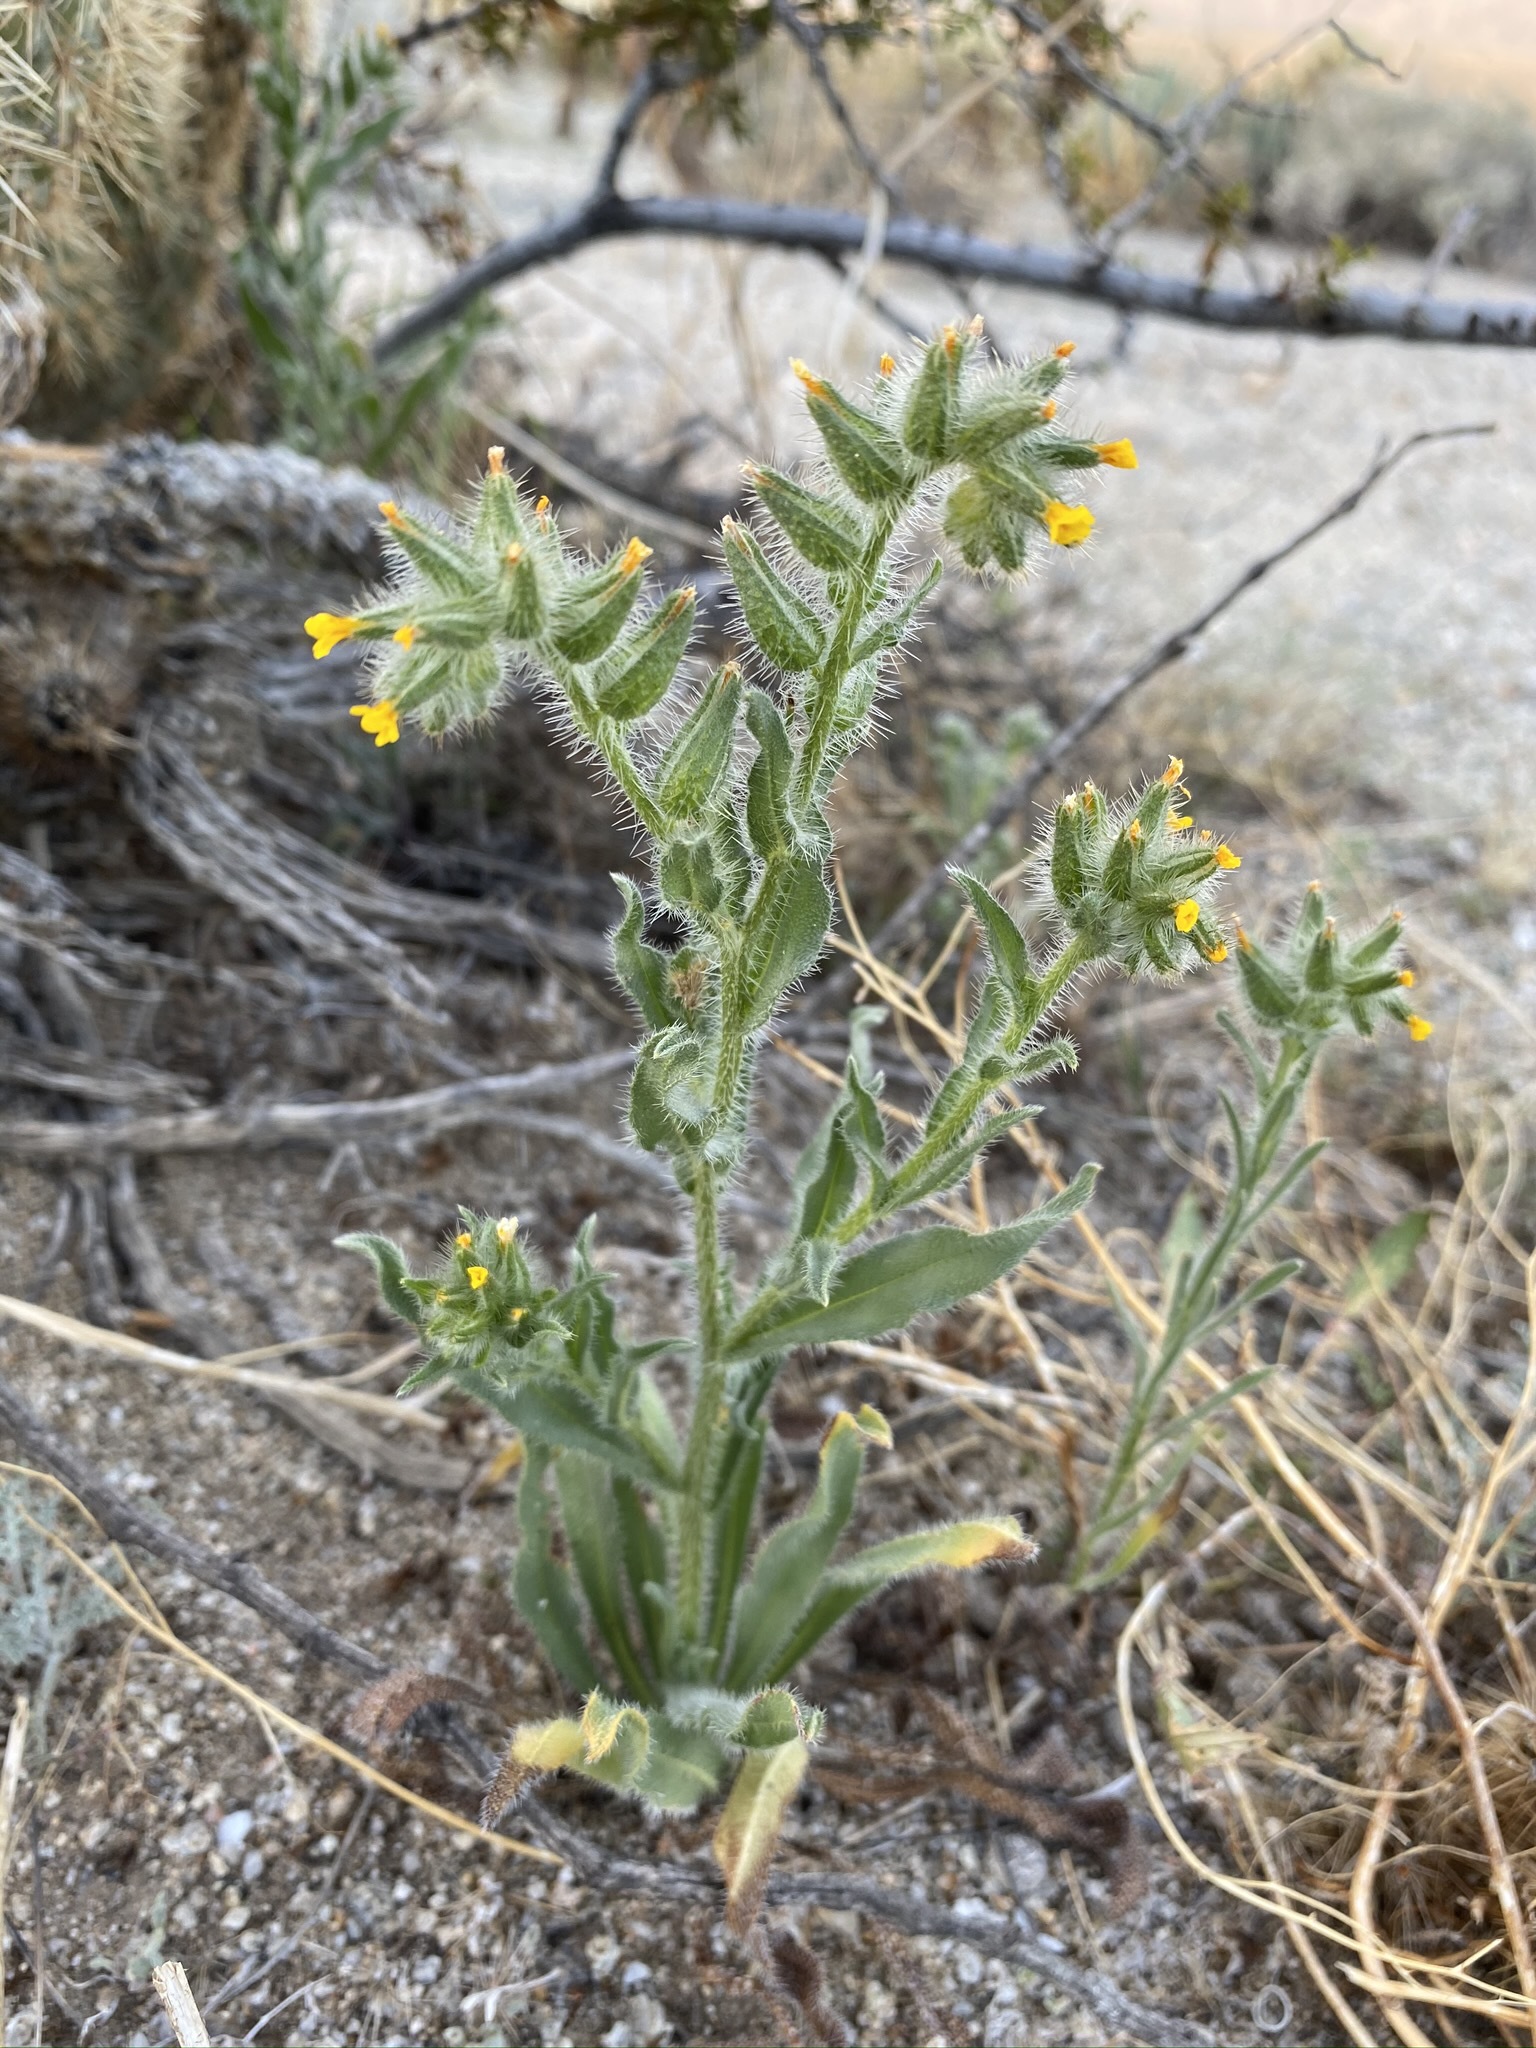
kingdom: Plantae
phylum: Tracheophyta
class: Magnoliopsida
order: Boraginales
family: Boraginaceae
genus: Amsinckia
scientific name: Amsinckia tessellata
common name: Tessellate fiddleneck
